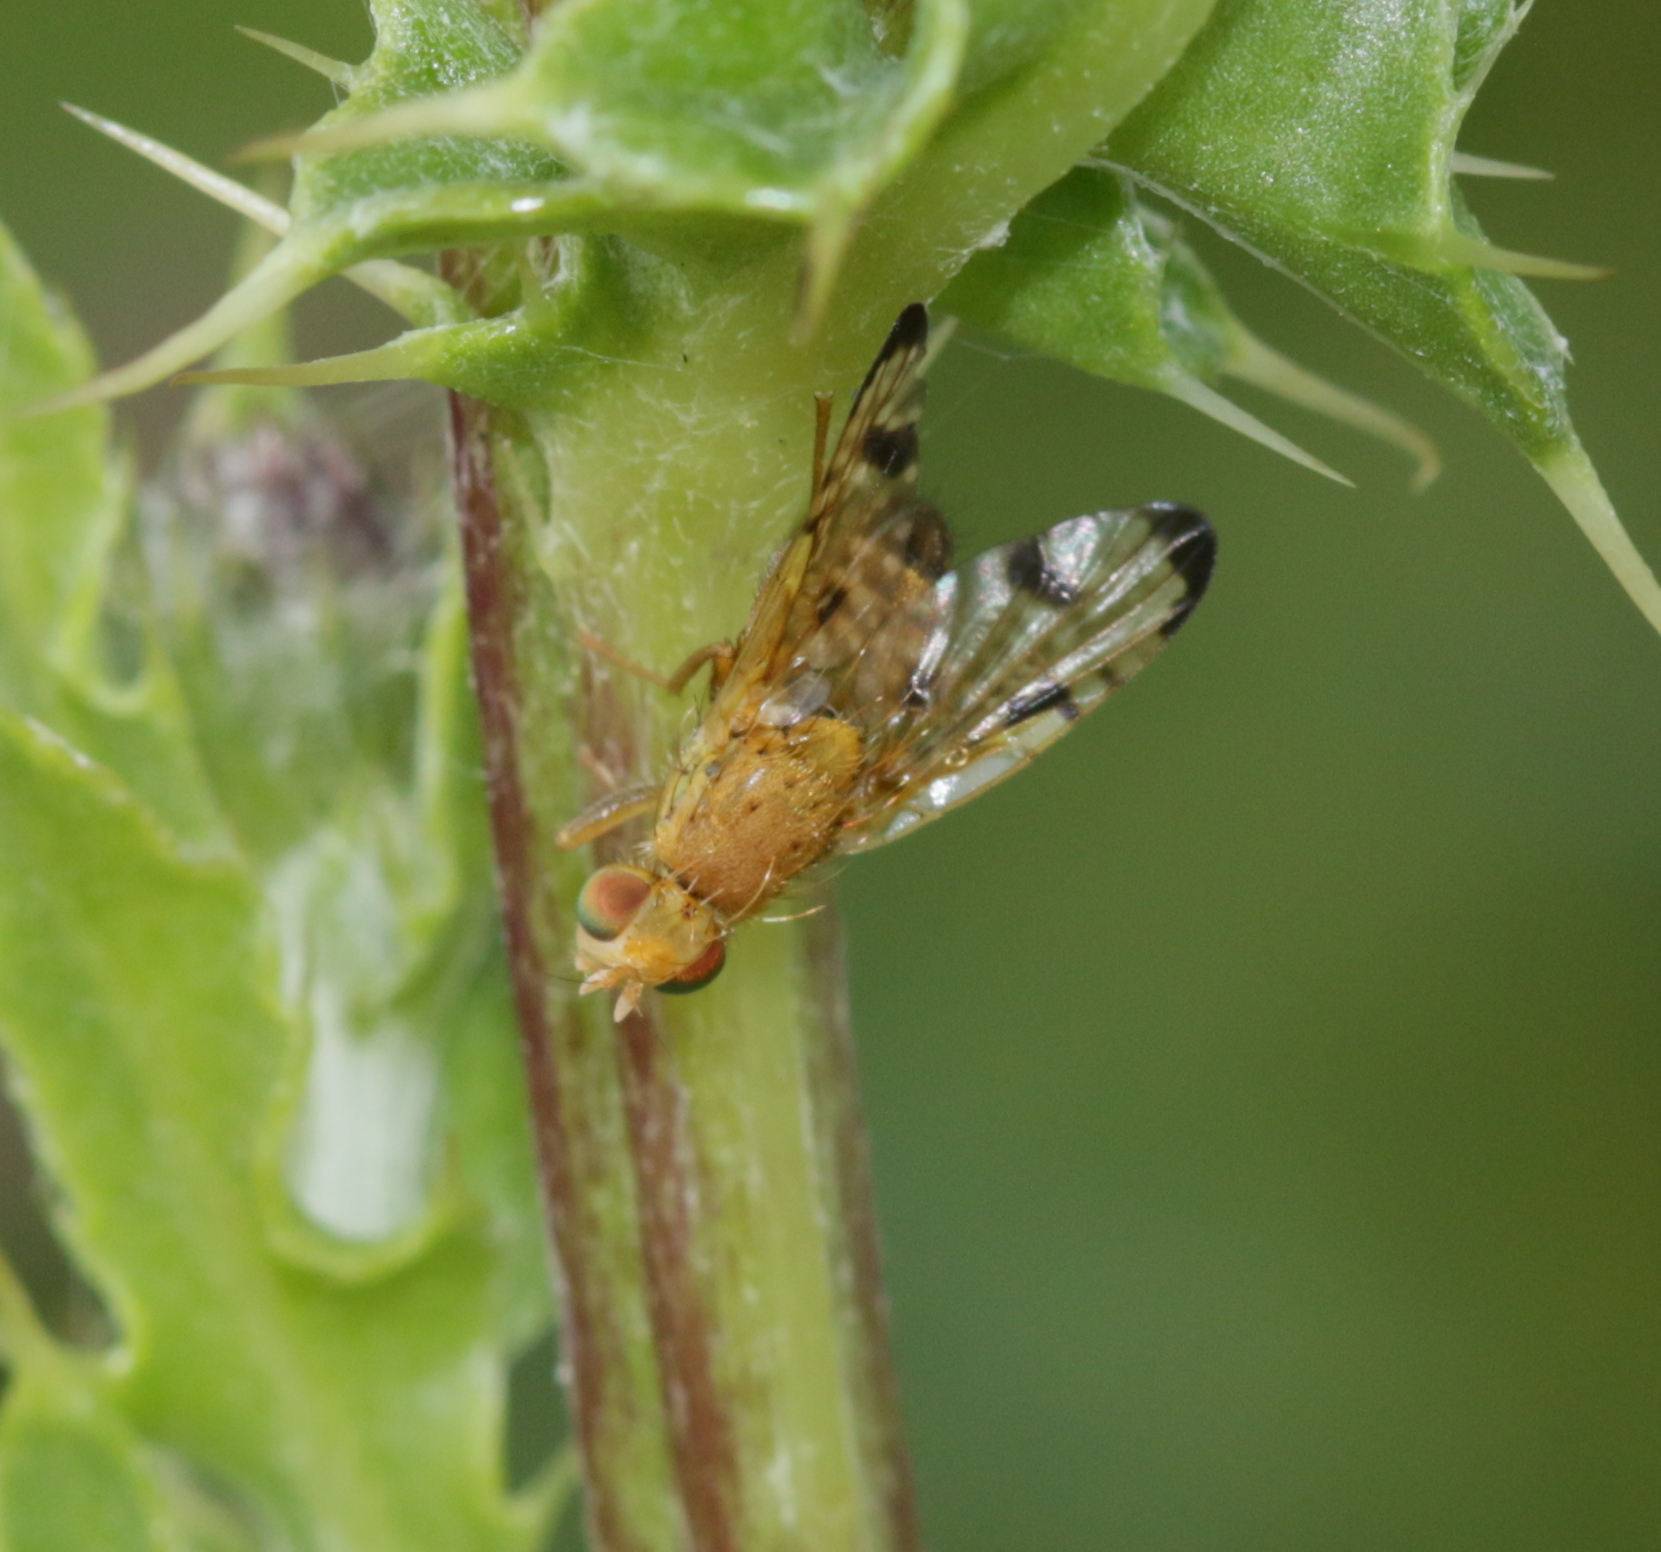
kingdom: Animalia
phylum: Arthropoda
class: Insecta
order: Diptera
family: Tephritidae
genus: Xyphosia
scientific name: Xyphosia miliaria
